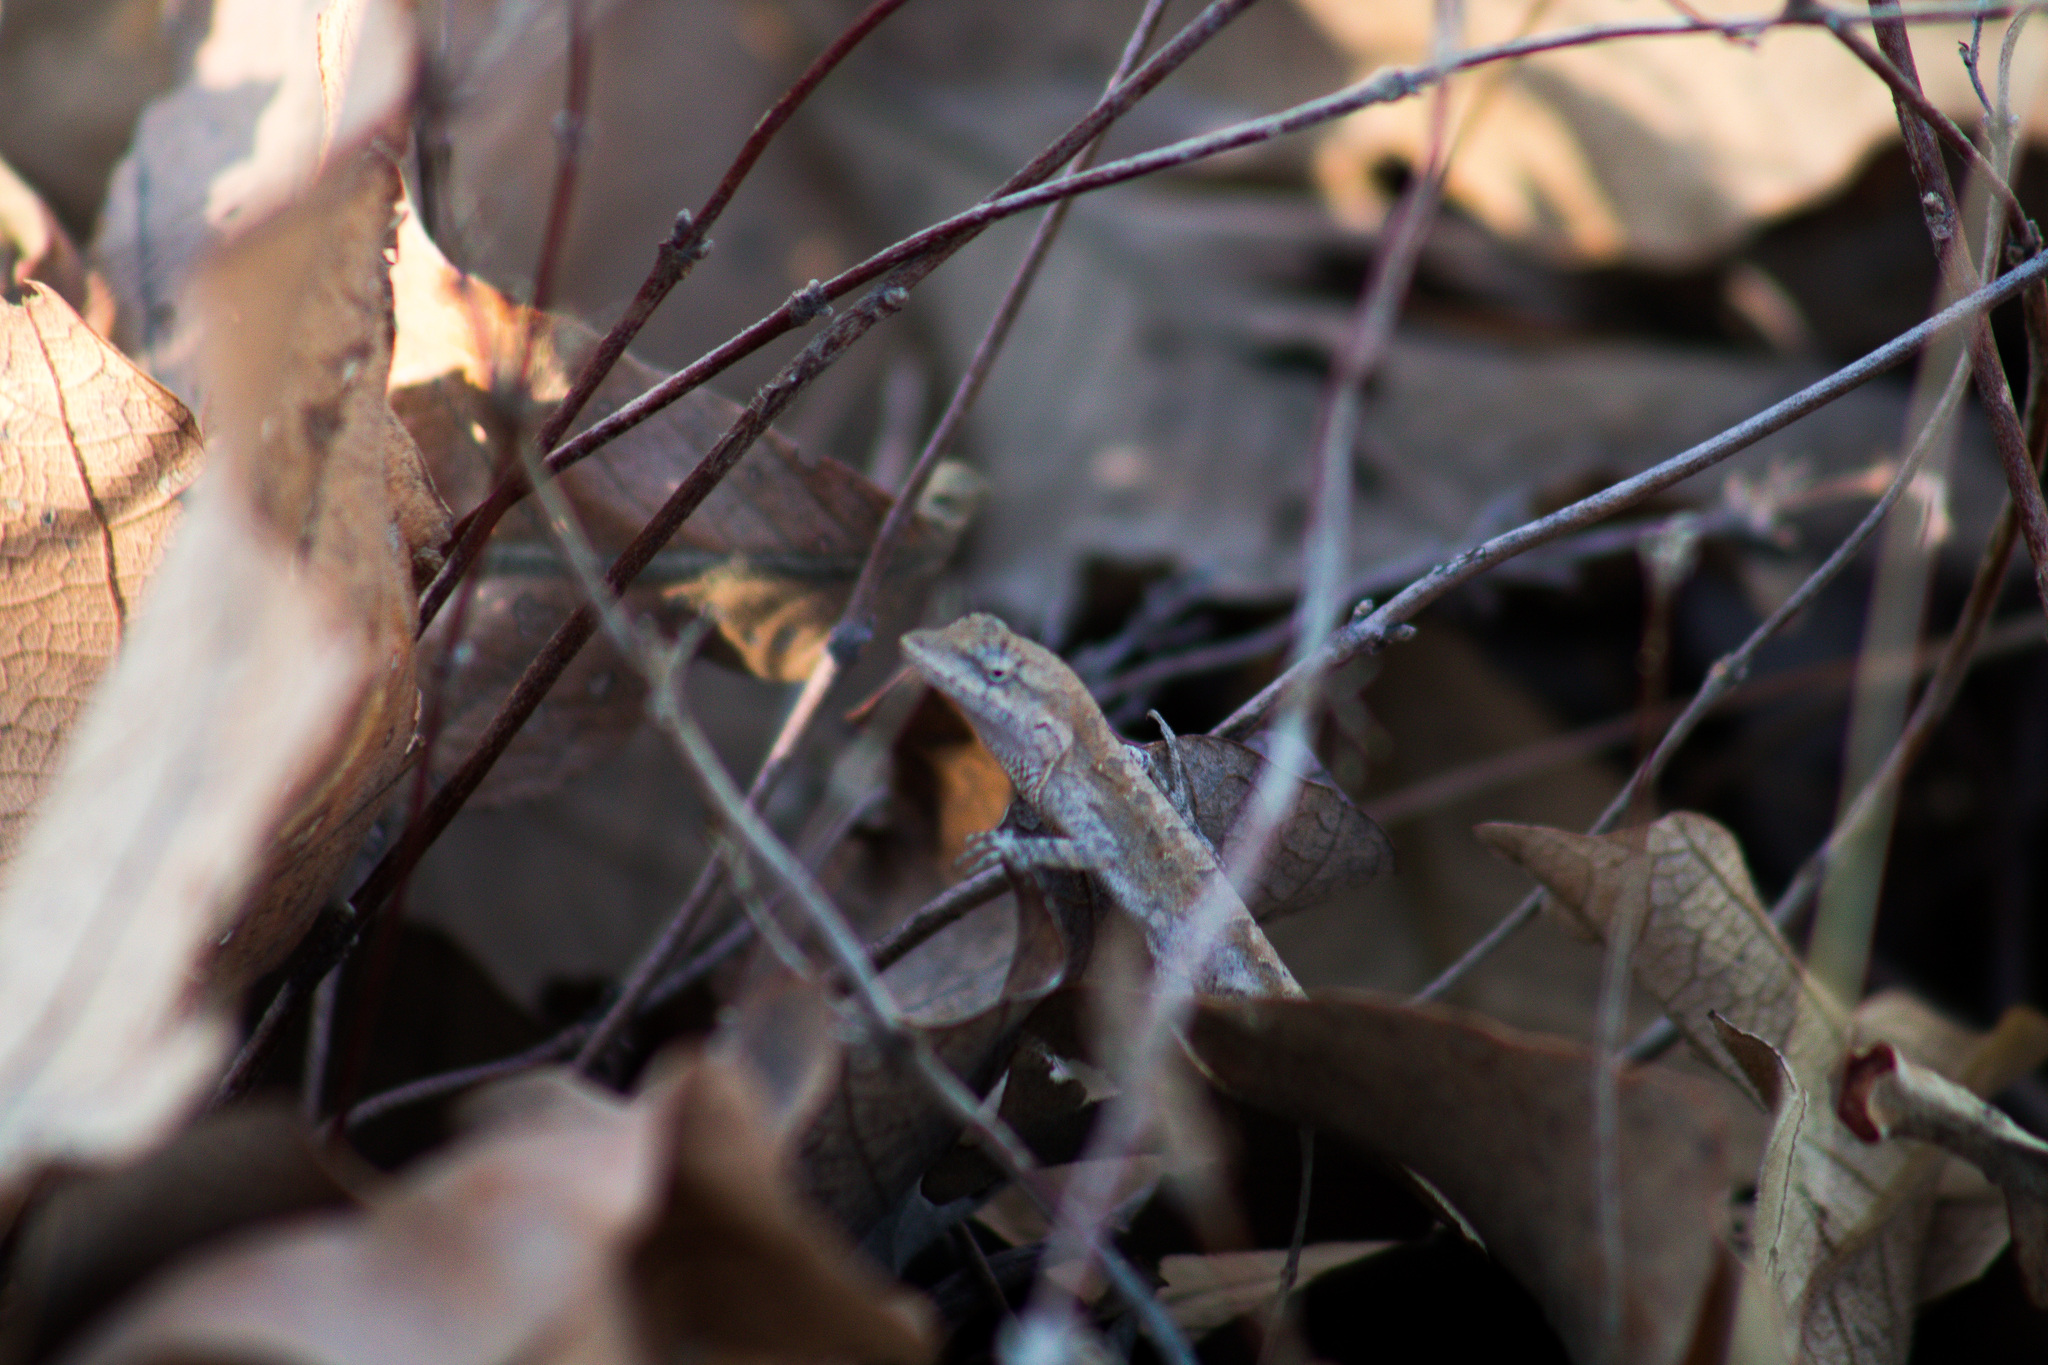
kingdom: Animalia
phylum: Chordata
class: Squamata
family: Dactyloidae
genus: Anolis
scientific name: Anolis nebulosus
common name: Clouded anole
